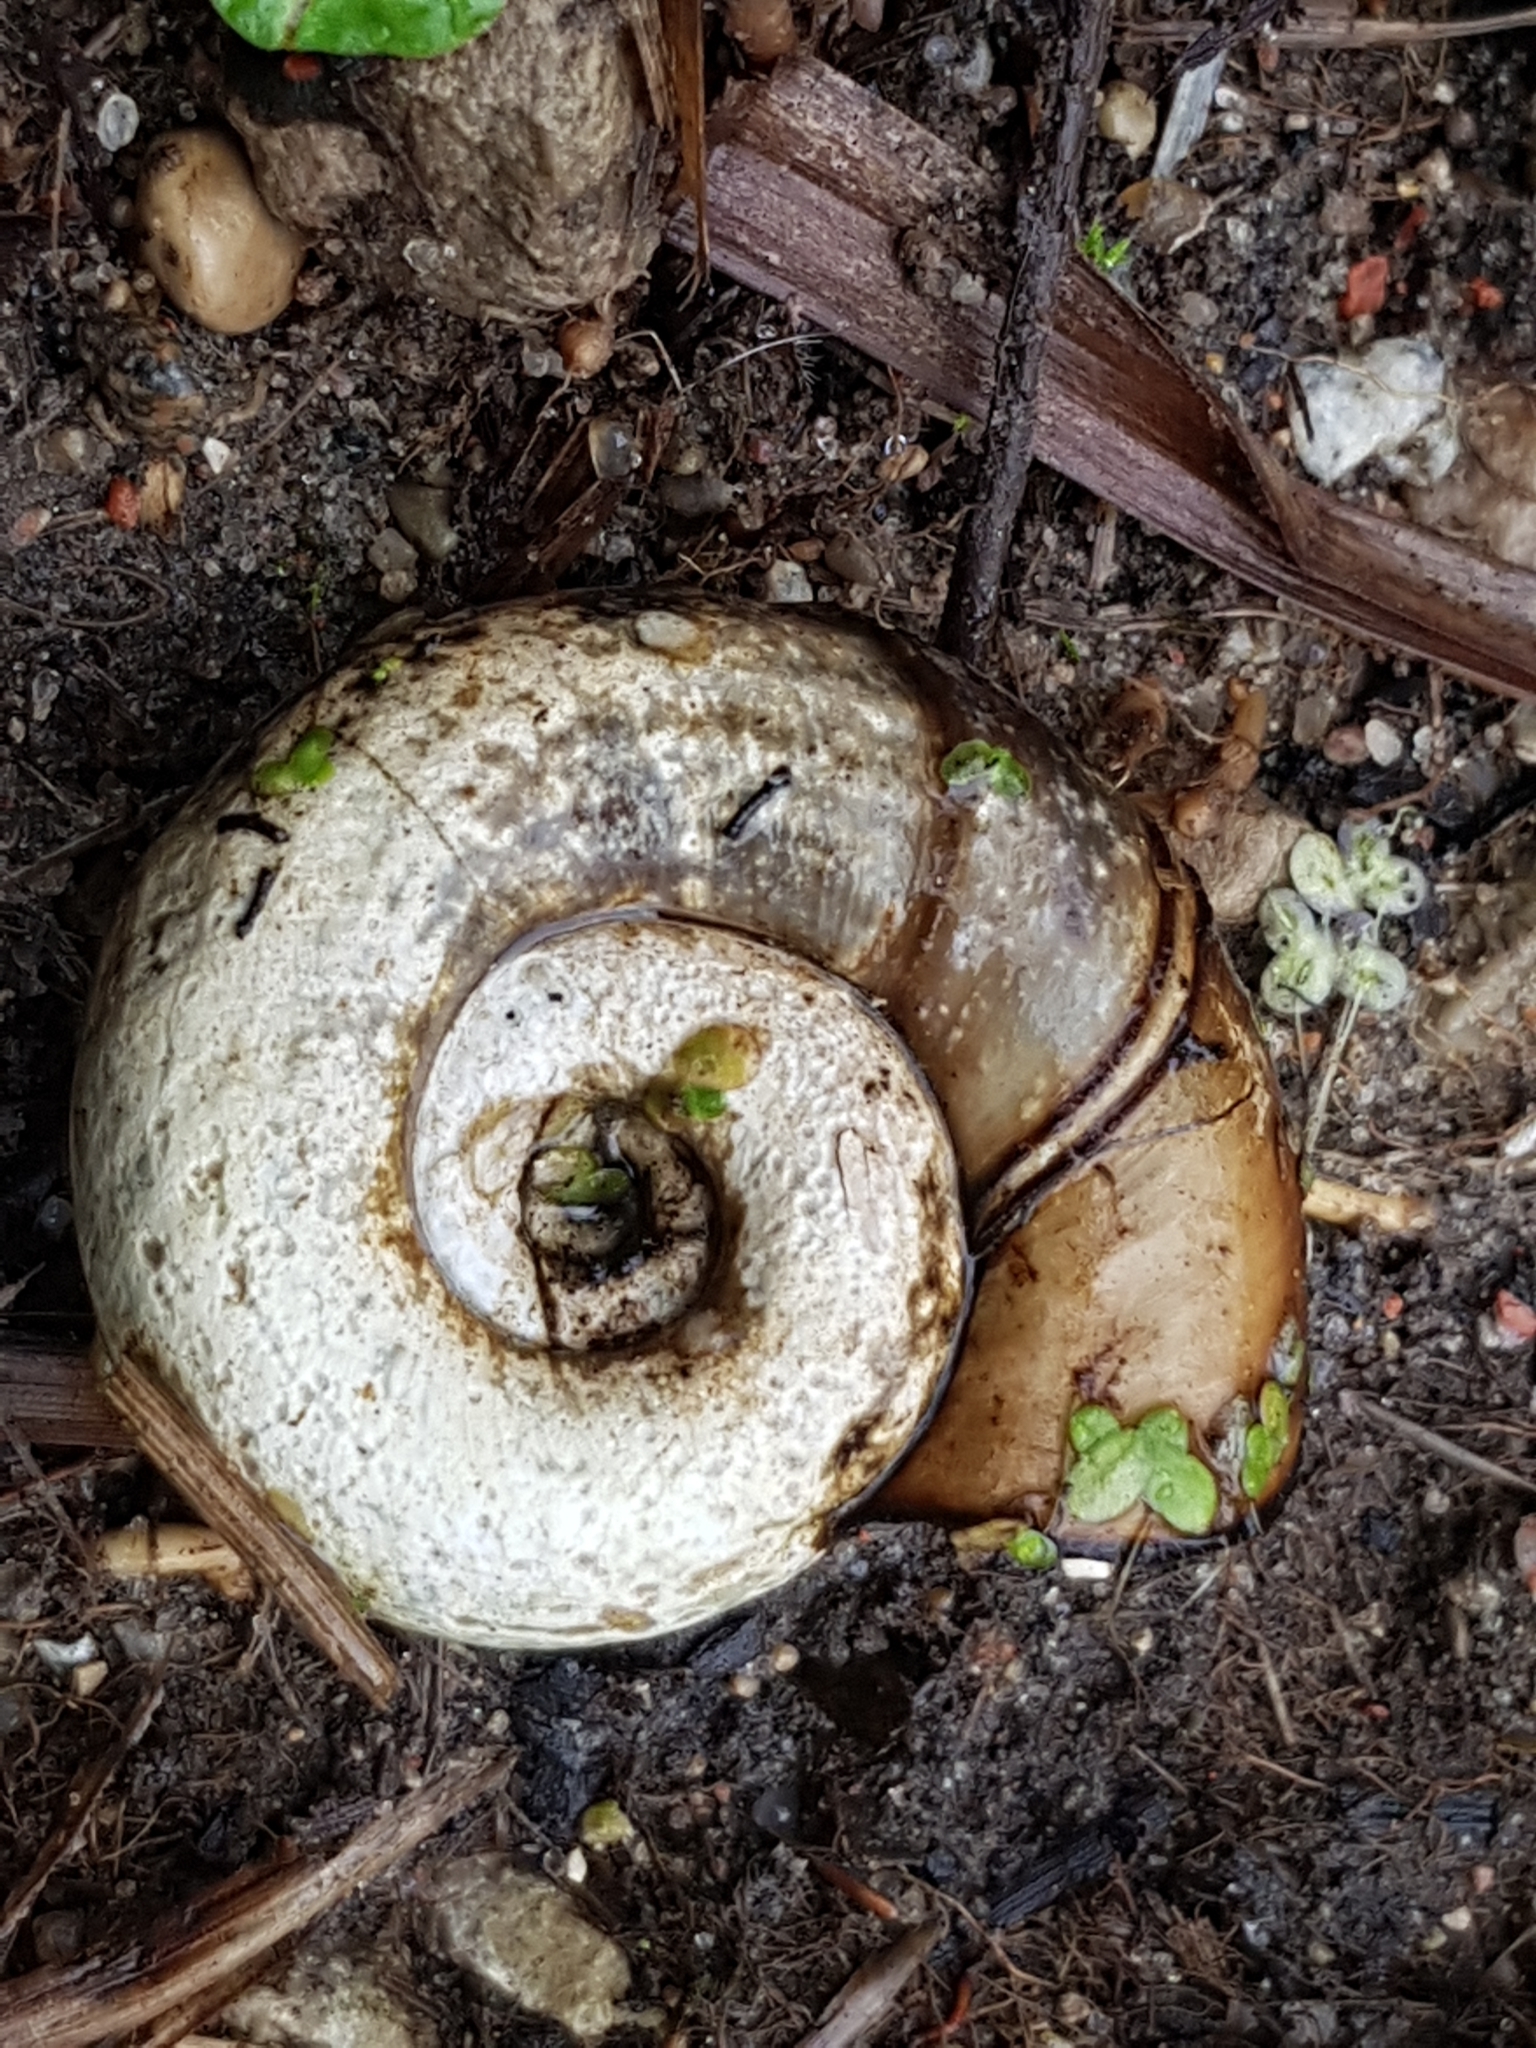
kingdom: Animalia
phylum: Mollusca
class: Gastropoda
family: Planorbidae
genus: Planorbarius
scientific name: Planorbarius corneus
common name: Great ramshorn
